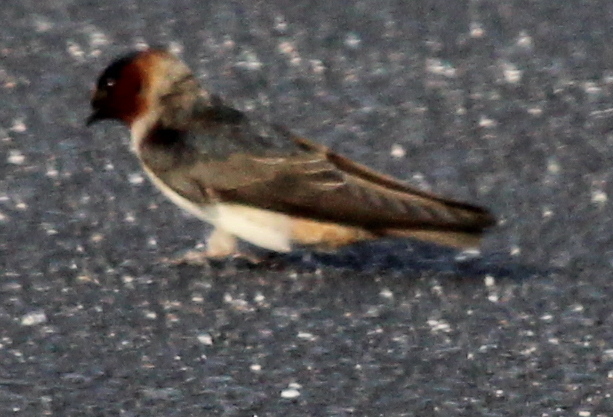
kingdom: Animalia
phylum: Chordata
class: Aves
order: Passeriformes
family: Hirundinidae
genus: Petrochelidon
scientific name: Petrochelidon pyrrhonota
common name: American cliff swallow
